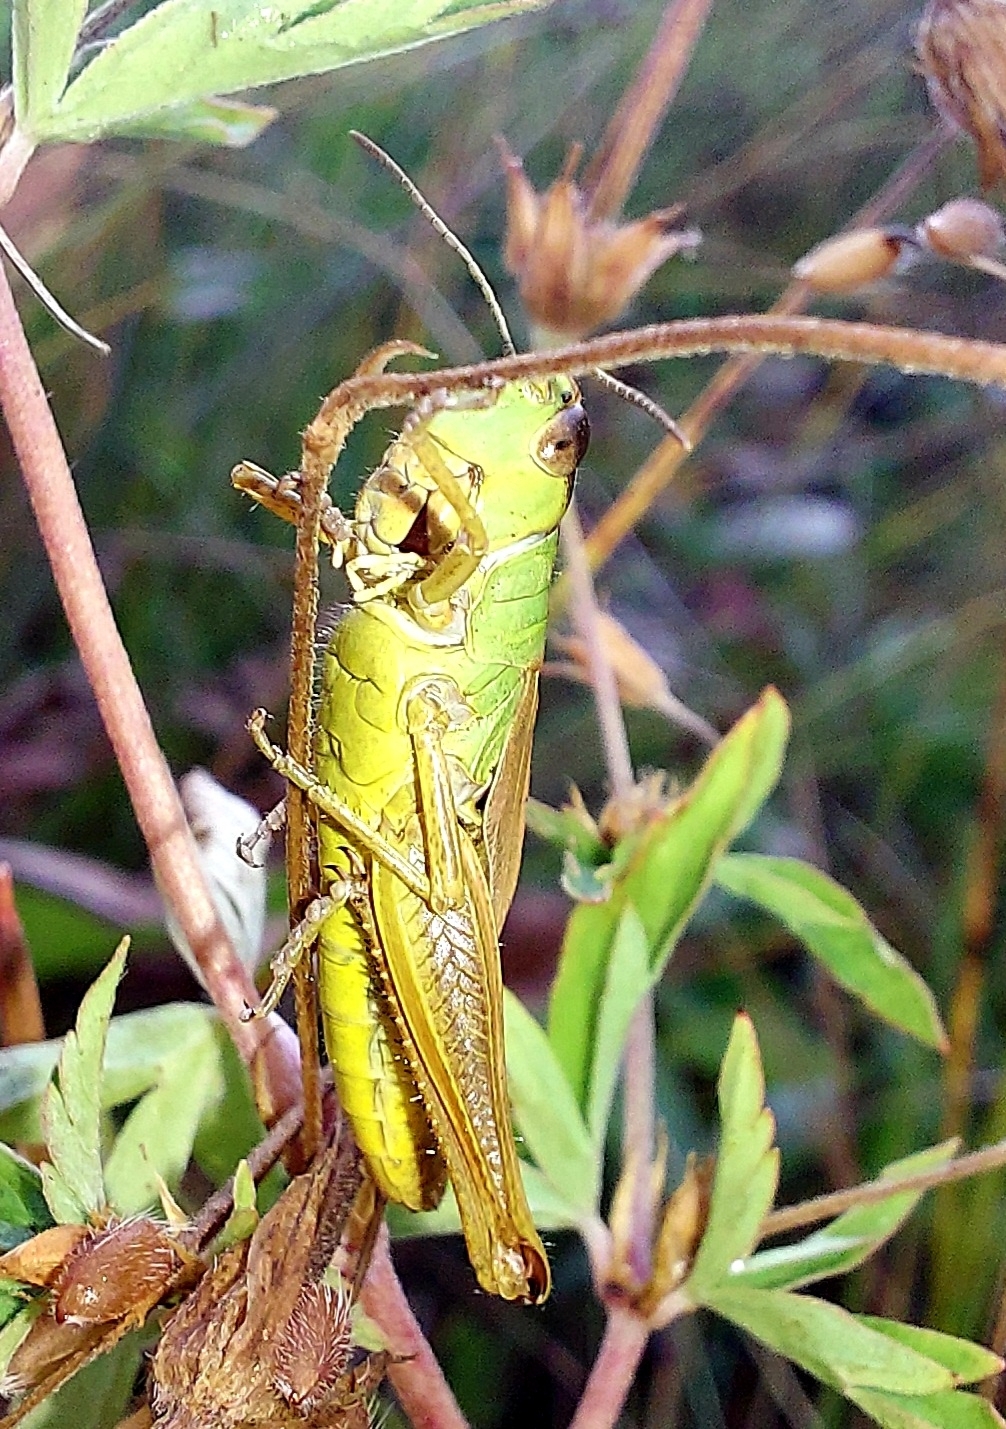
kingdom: Animalia
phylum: Arthropoda
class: Insecta
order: Orthoptera
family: Acrididae
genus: Pseudochorthippus
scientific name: Pseudochorthippus parallelus
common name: Meadow grasshopper
